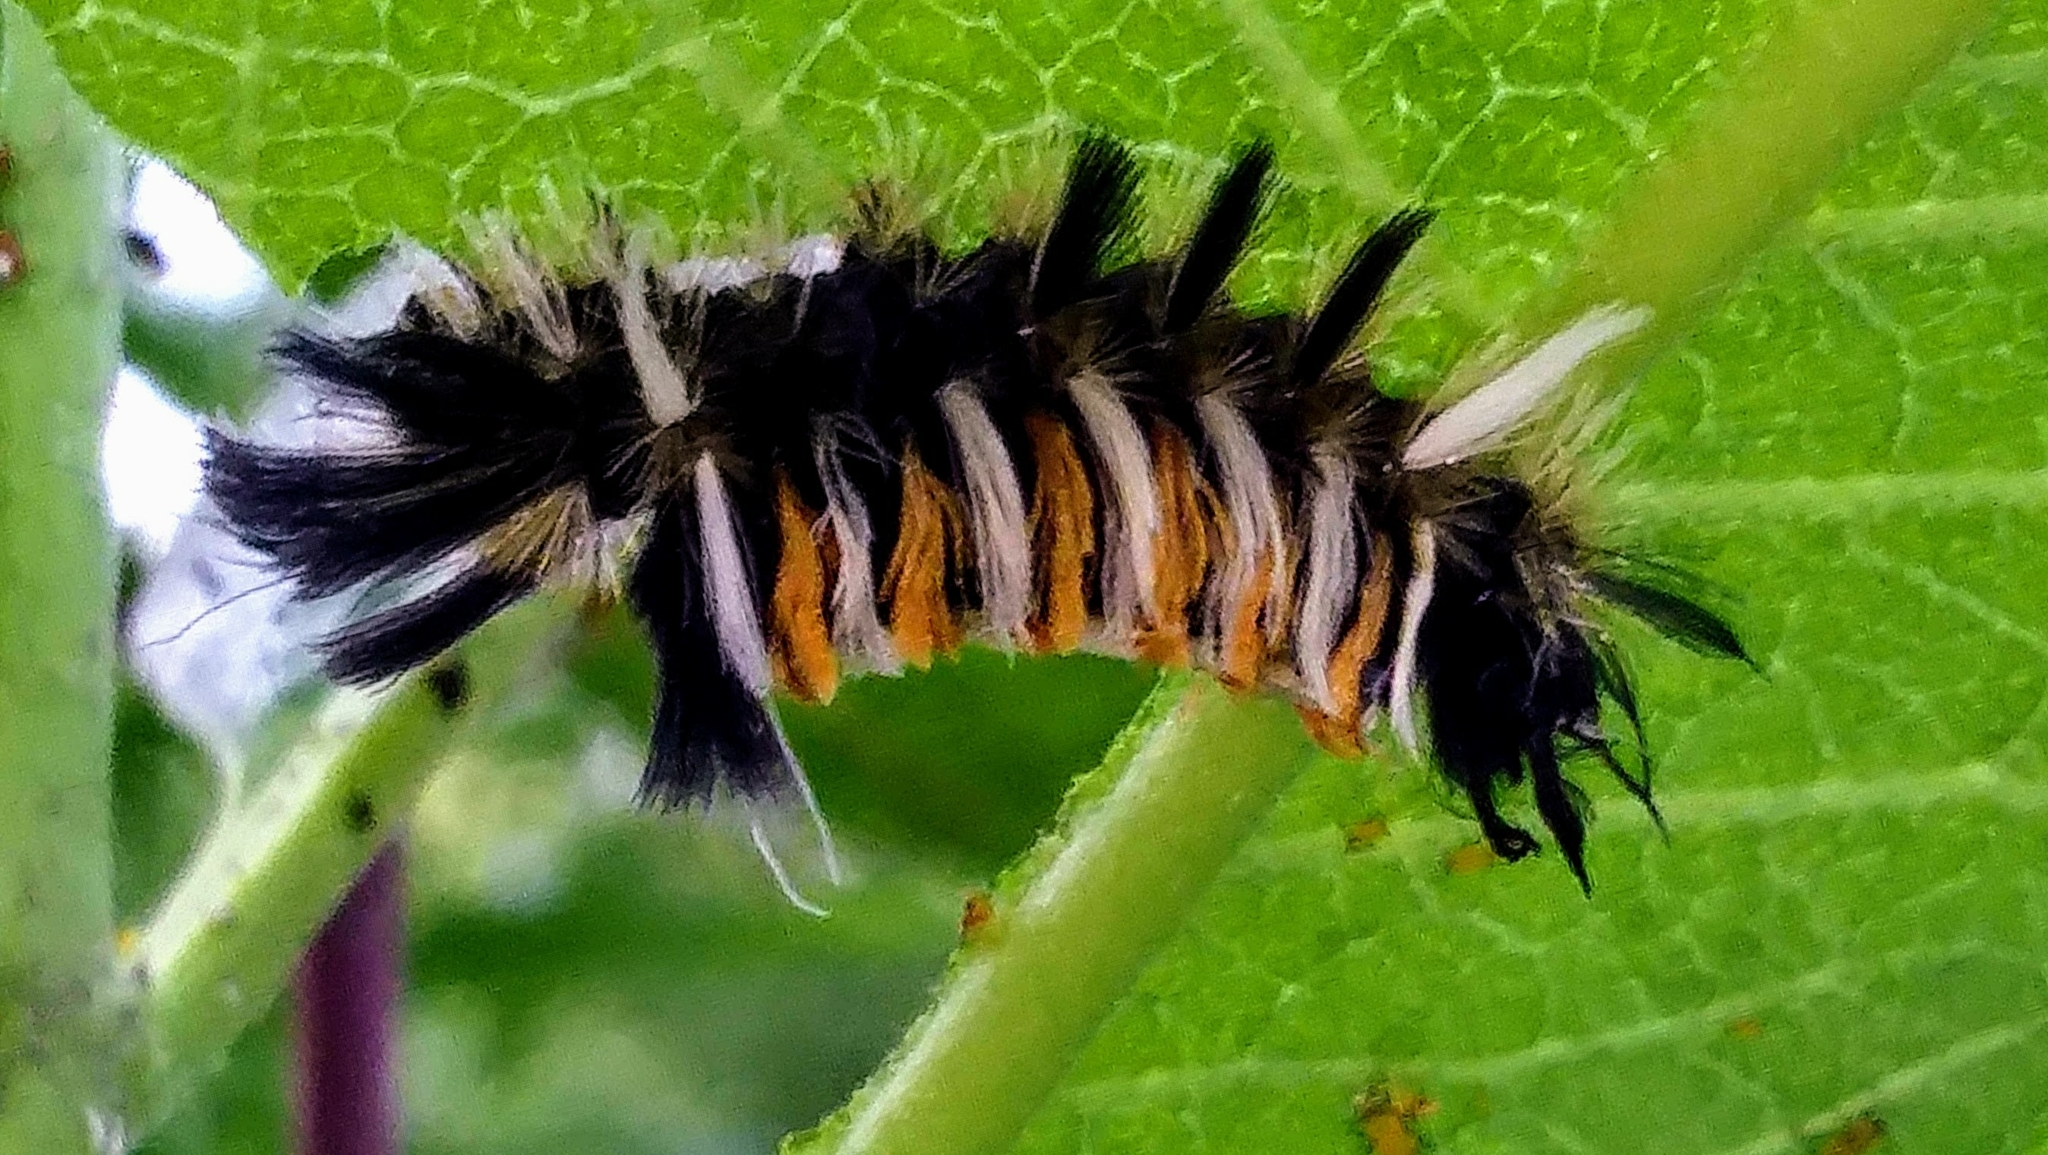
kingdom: Animalia
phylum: Arthropoda
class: Insecta
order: Lepidoptera
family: Erebidae
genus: Euchaetes
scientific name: Euchaetes egle
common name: Milkweed tussock moth
